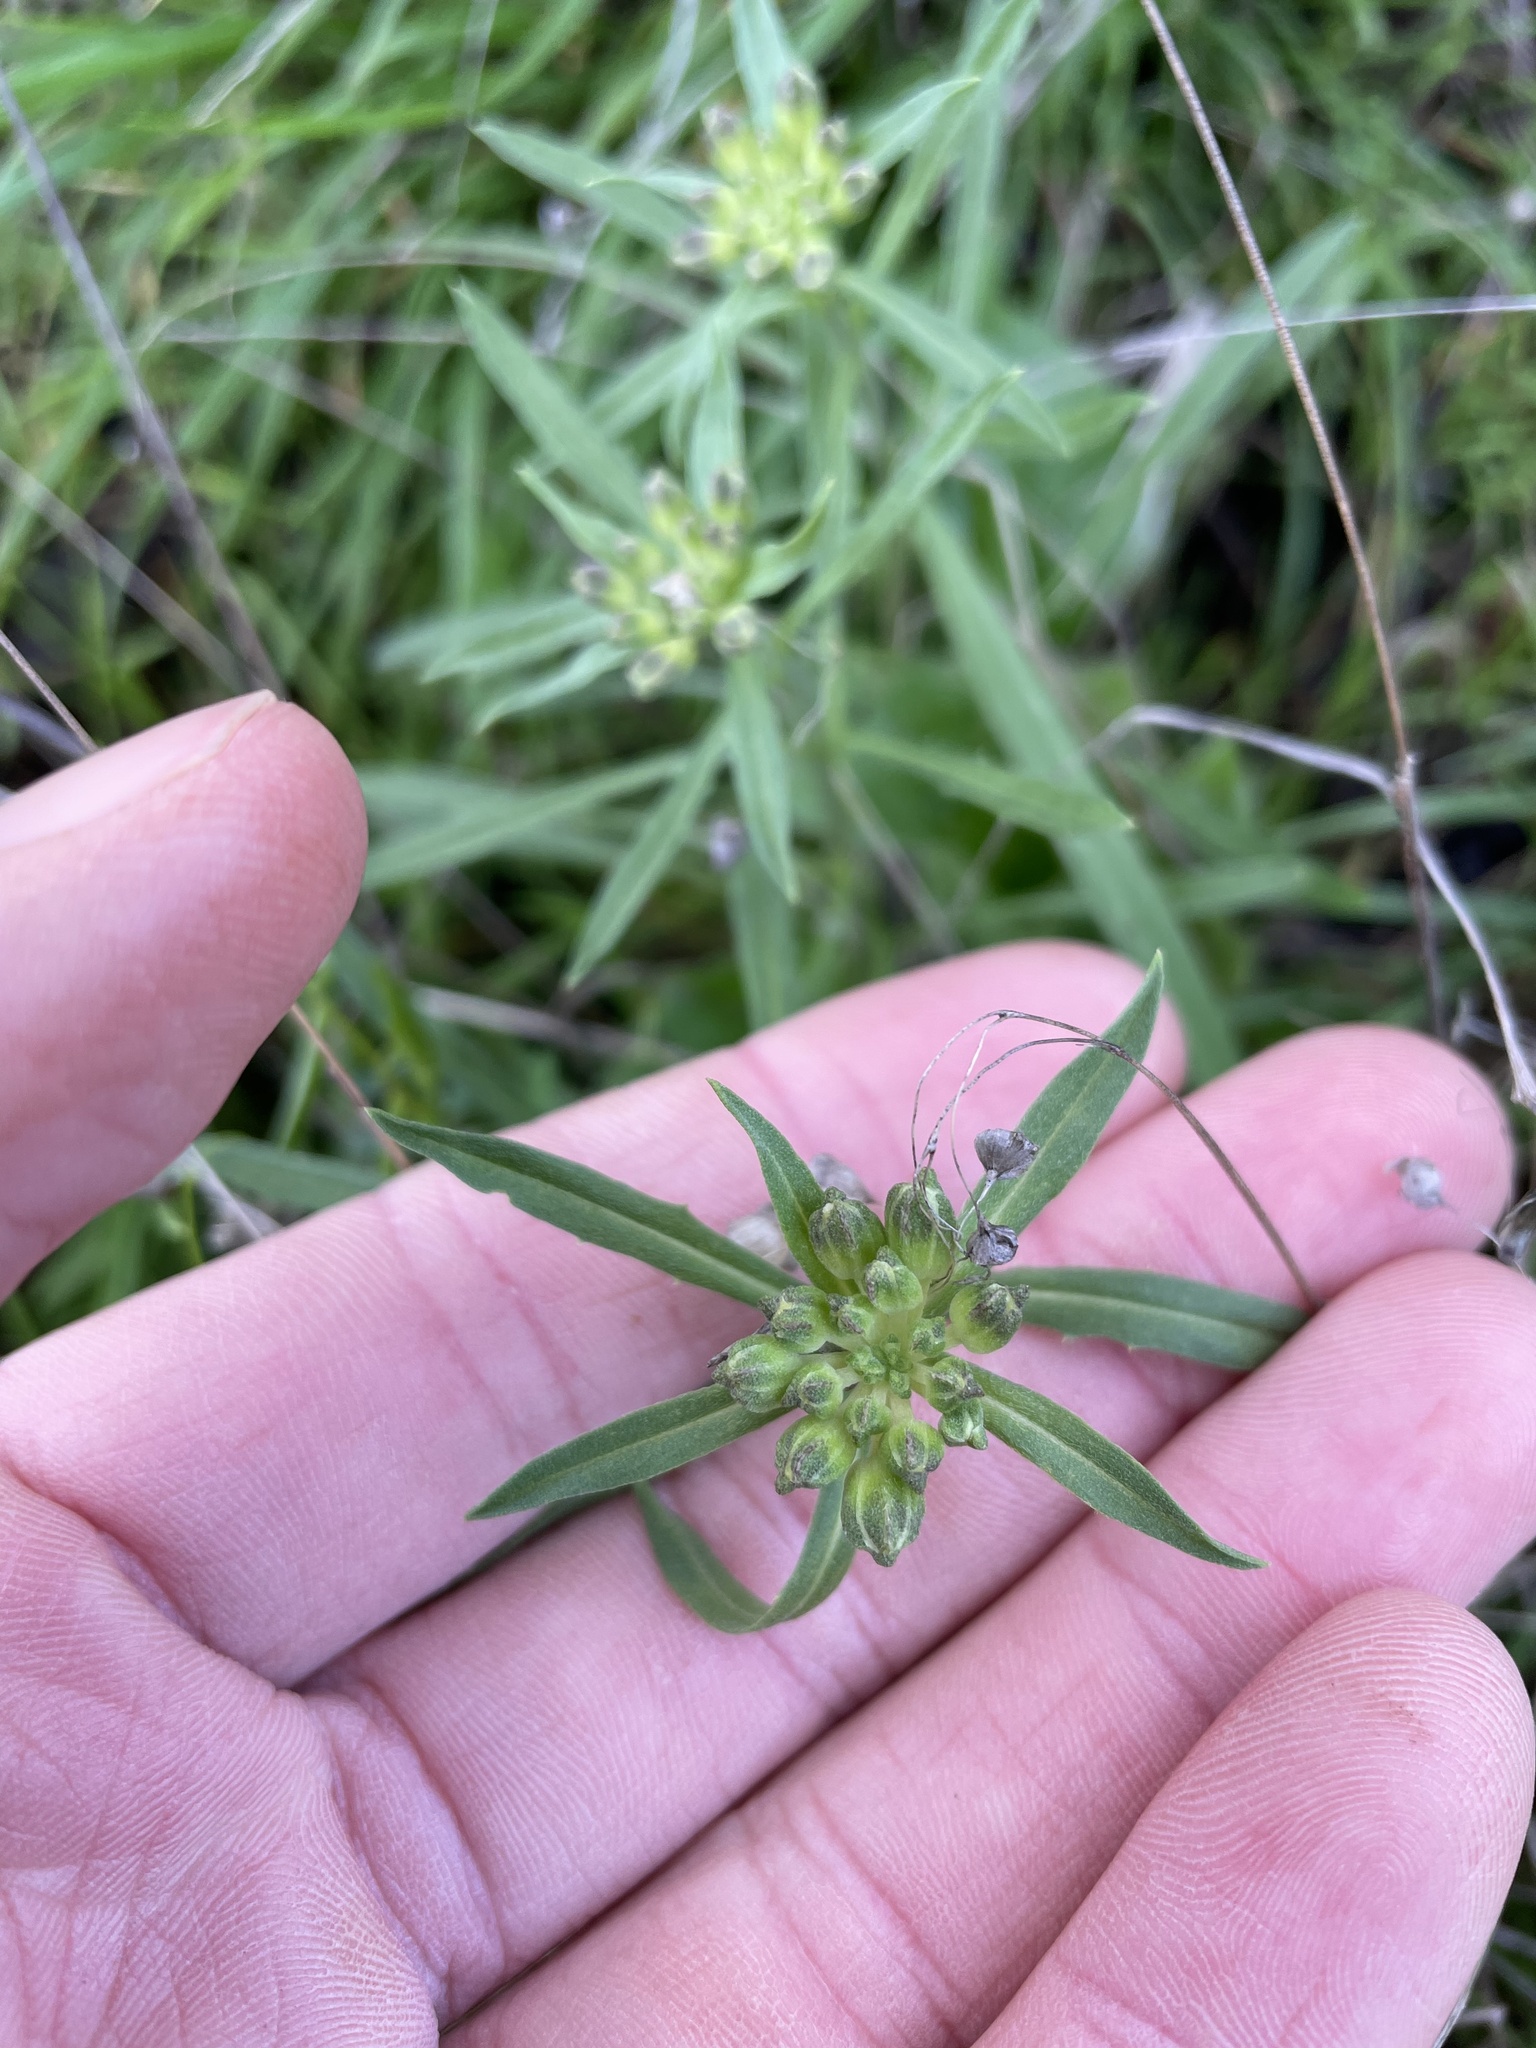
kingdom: Plantae
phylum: Tracheophyta
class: Magnoliopsida
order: Brassicales
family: Brassicaceae
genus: Erysimum
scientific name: Erysimum franciscanum
